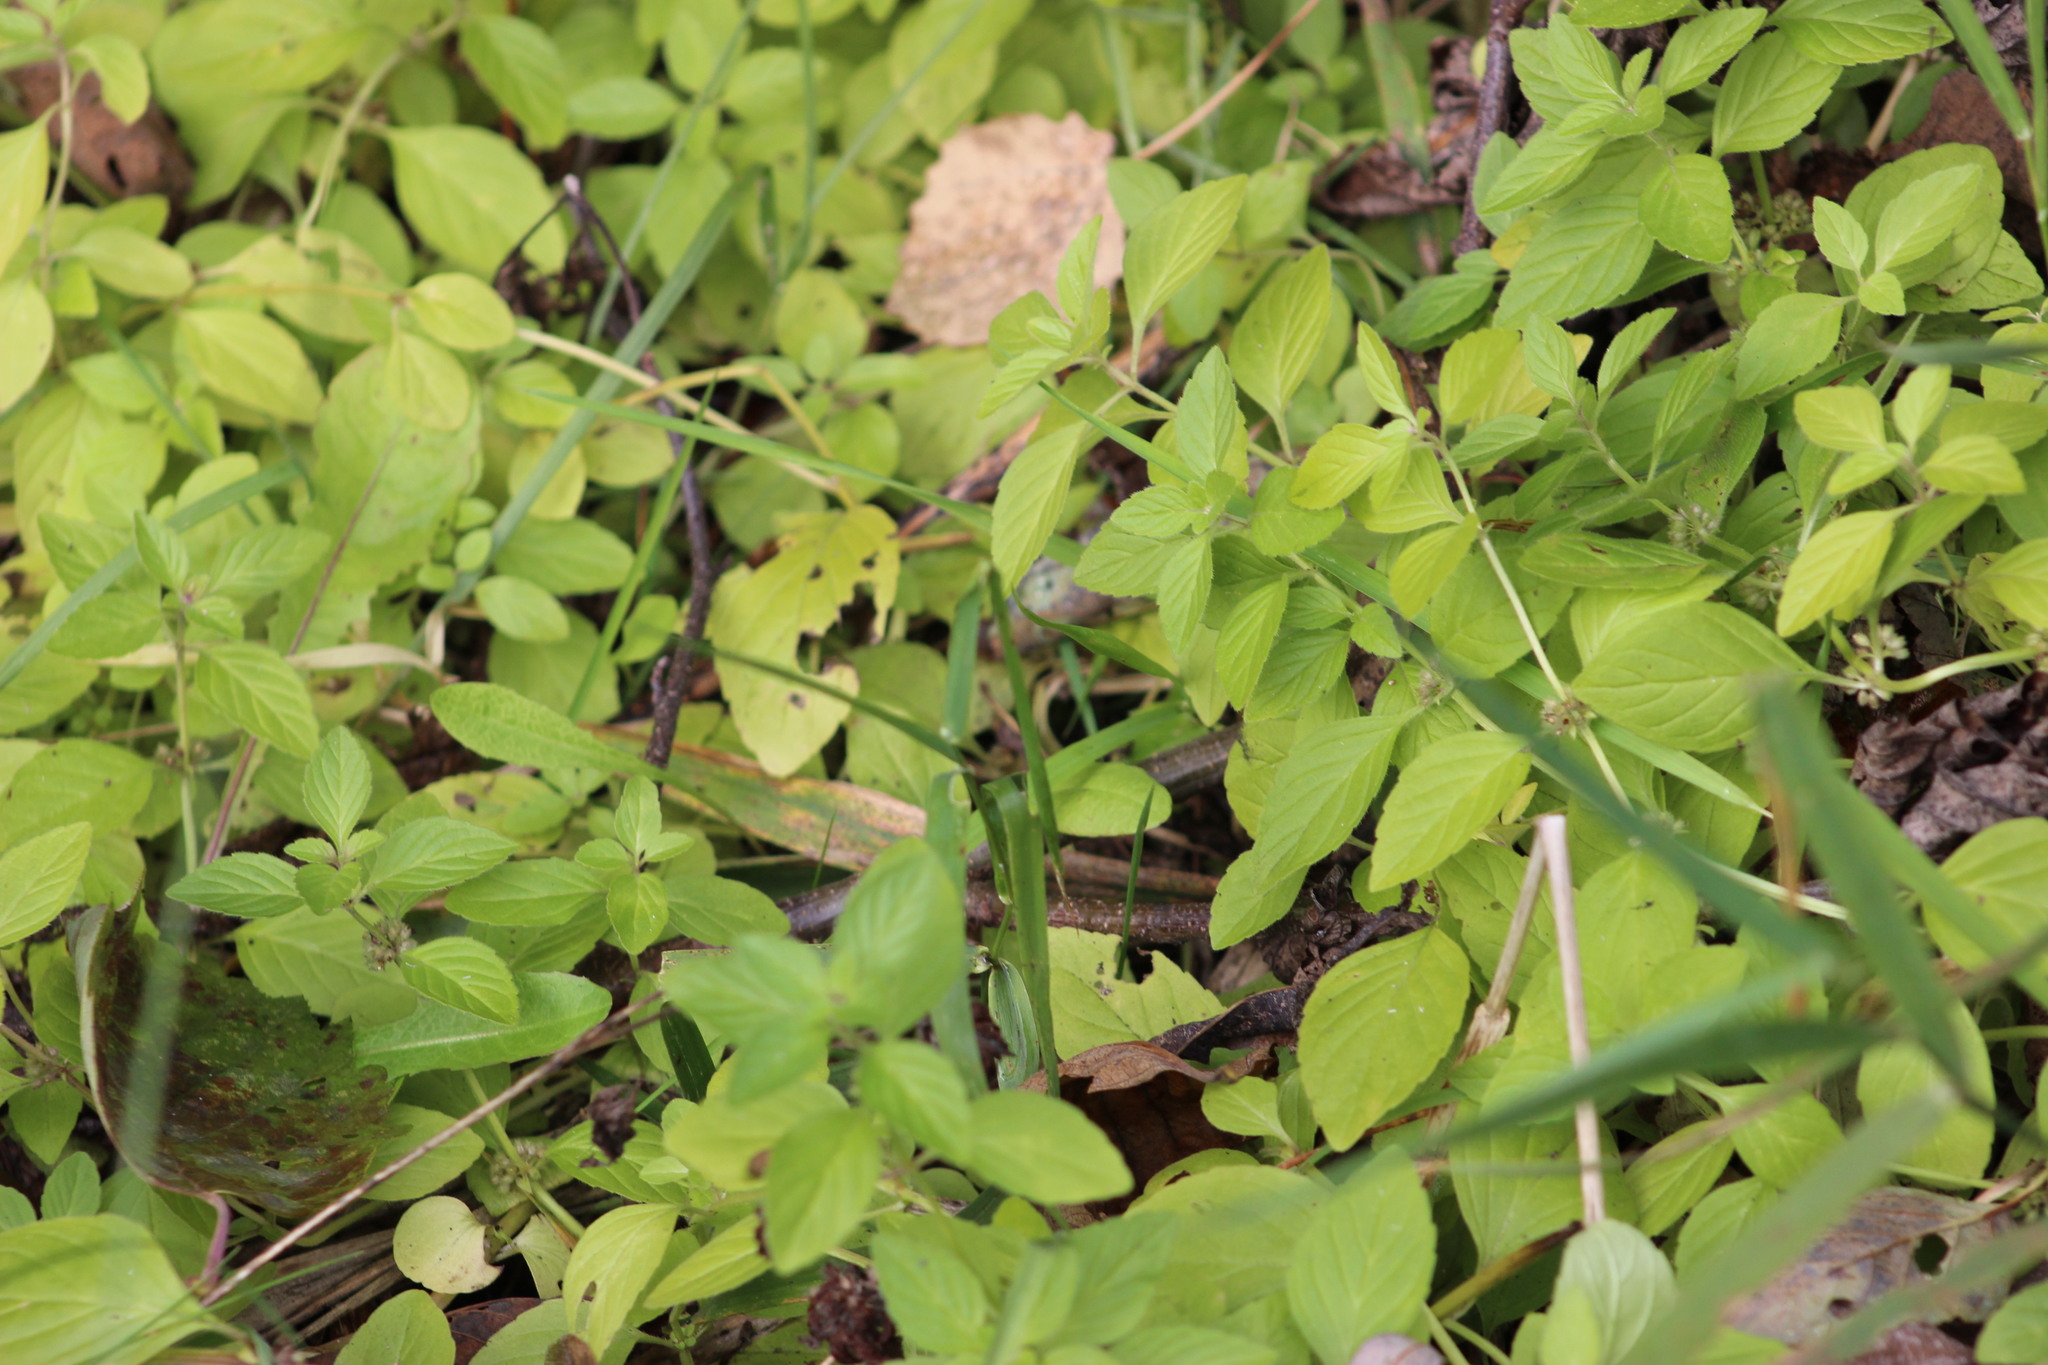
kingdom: Plantae
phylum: Tracheophyta
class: Magnoliopsida
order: Lamiales
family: Lamiaceae
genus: Mentha
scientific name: Mentha arvensis
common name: Corn mint
